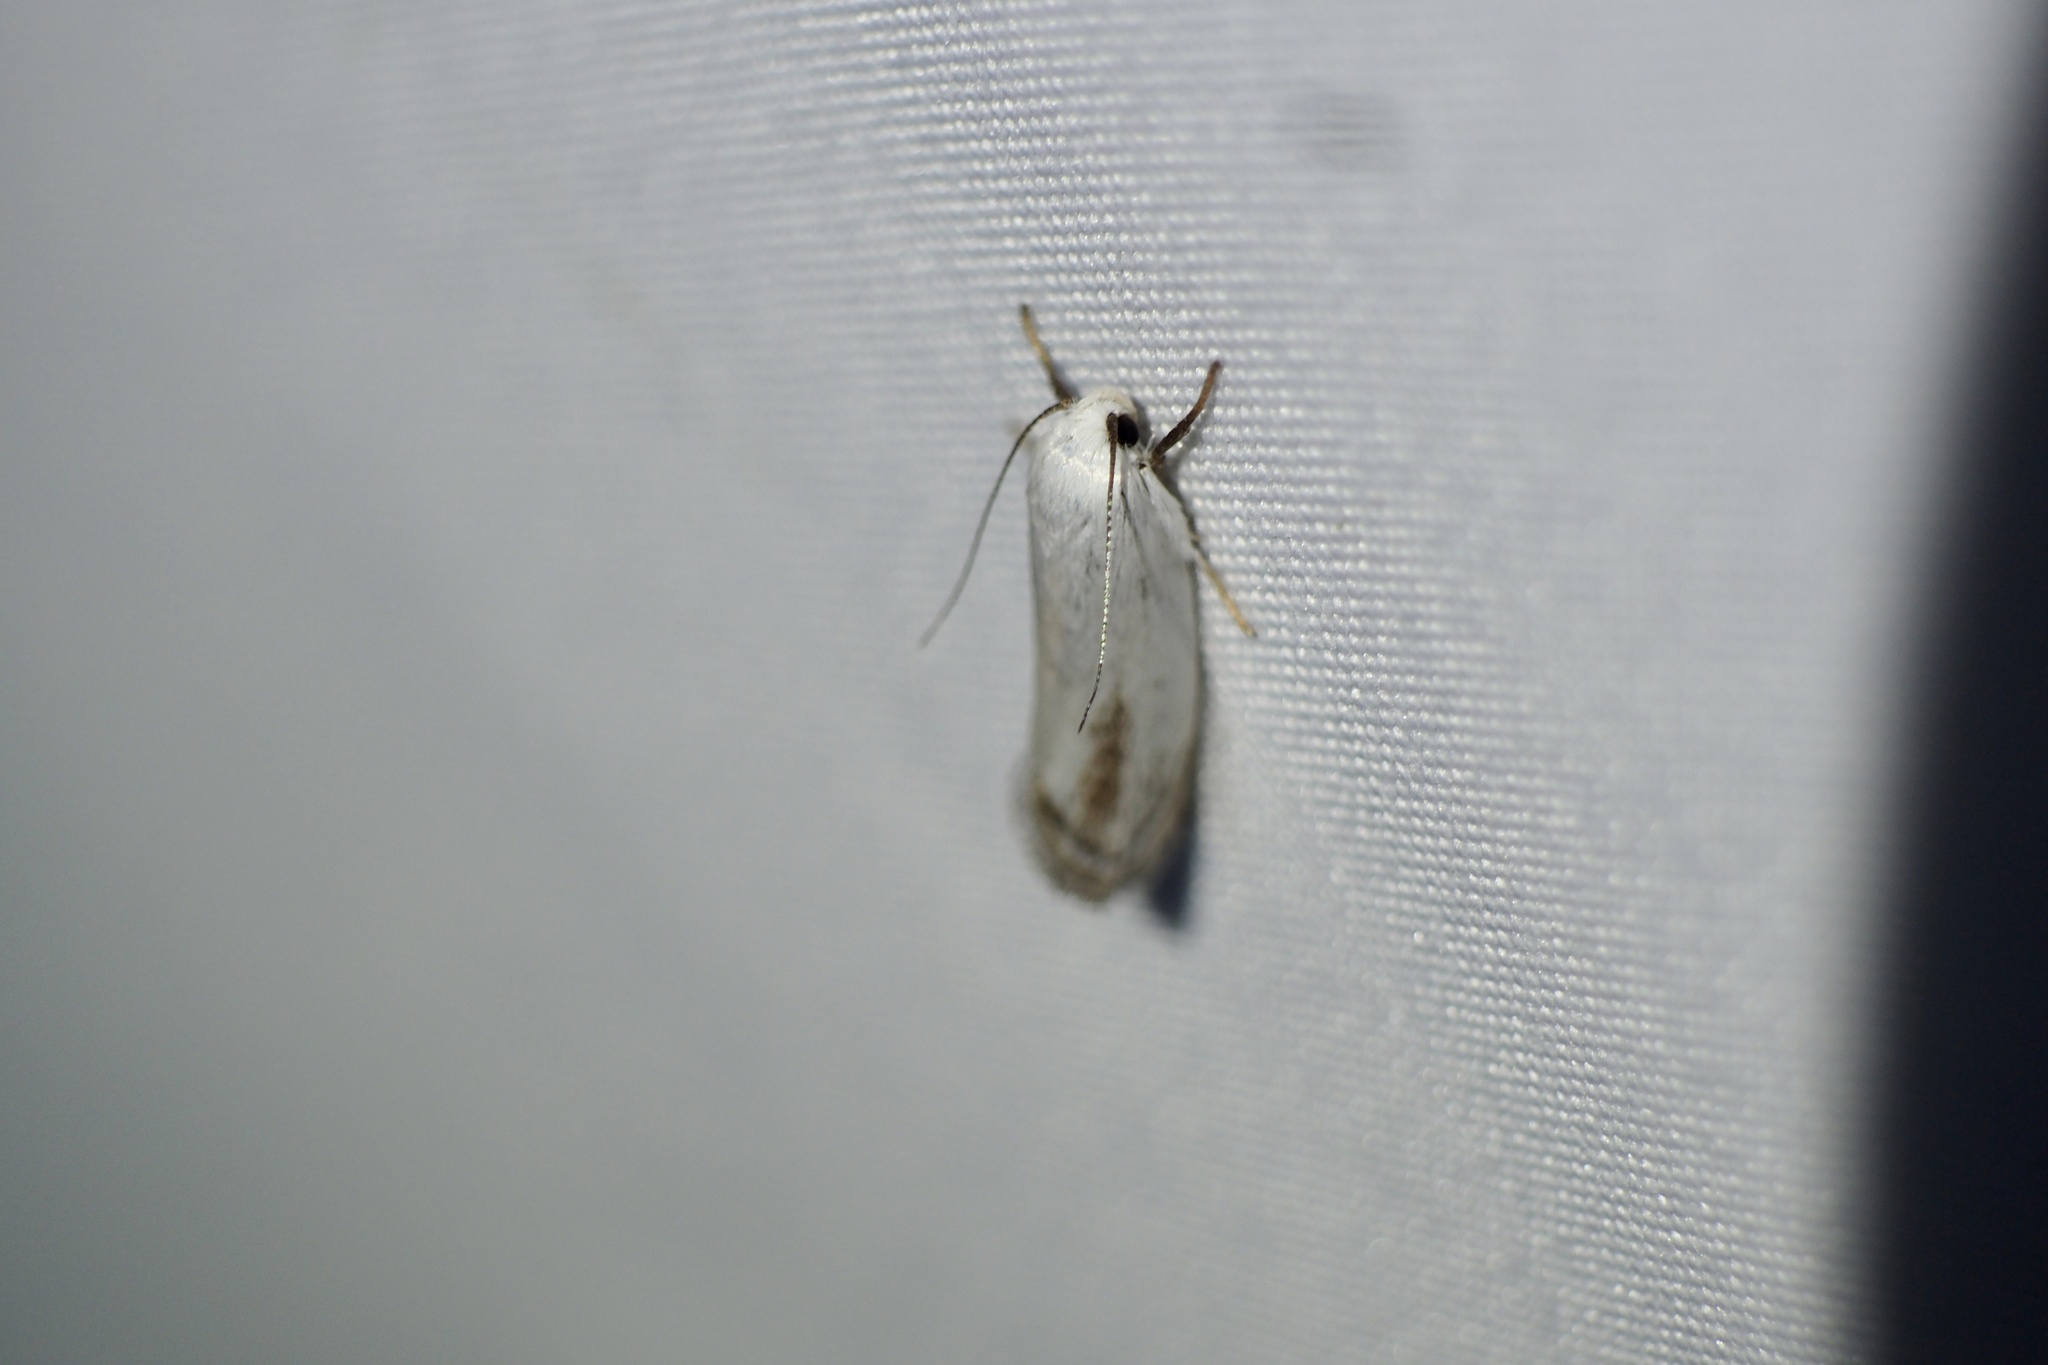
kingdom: Animalia
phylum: Arthropoda
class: Insecta
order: Lepidoptera
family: Xyloryctidae
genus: Metathrinca
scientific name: Metathrinca tsugensis
